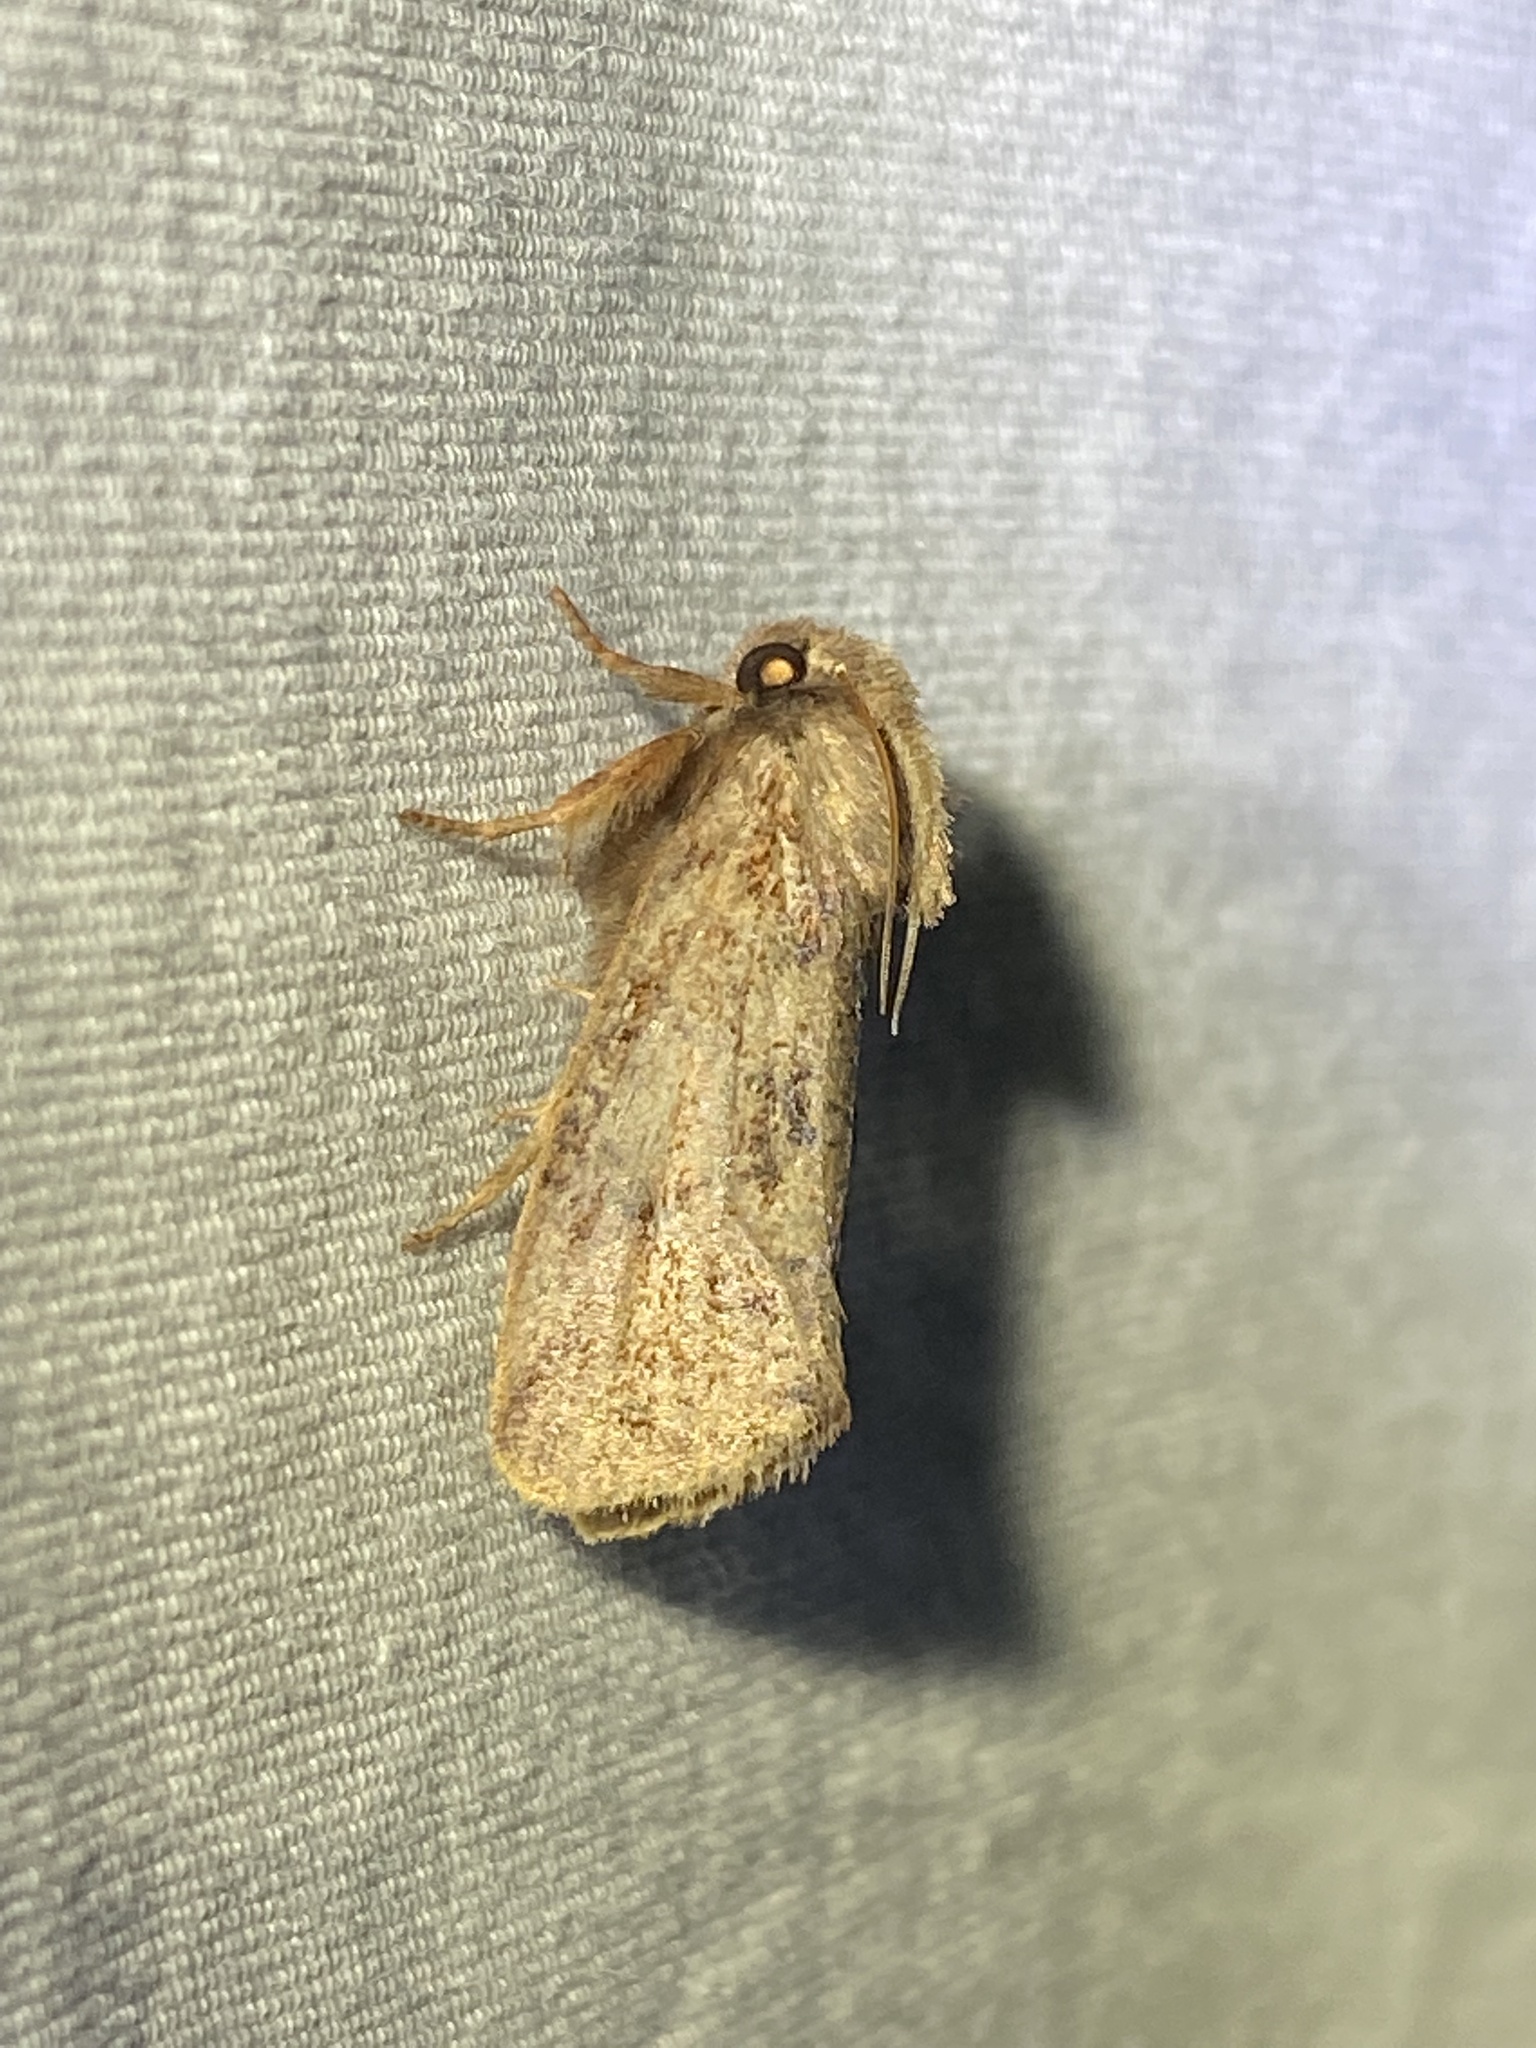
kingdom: Animalia
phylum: Arthropoda
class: Insecta
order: Lepidoptera
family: Tineidae
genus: Acrolophus
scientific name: Acrolophus plumifrontella
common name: Eastern grass tubeworm moth
